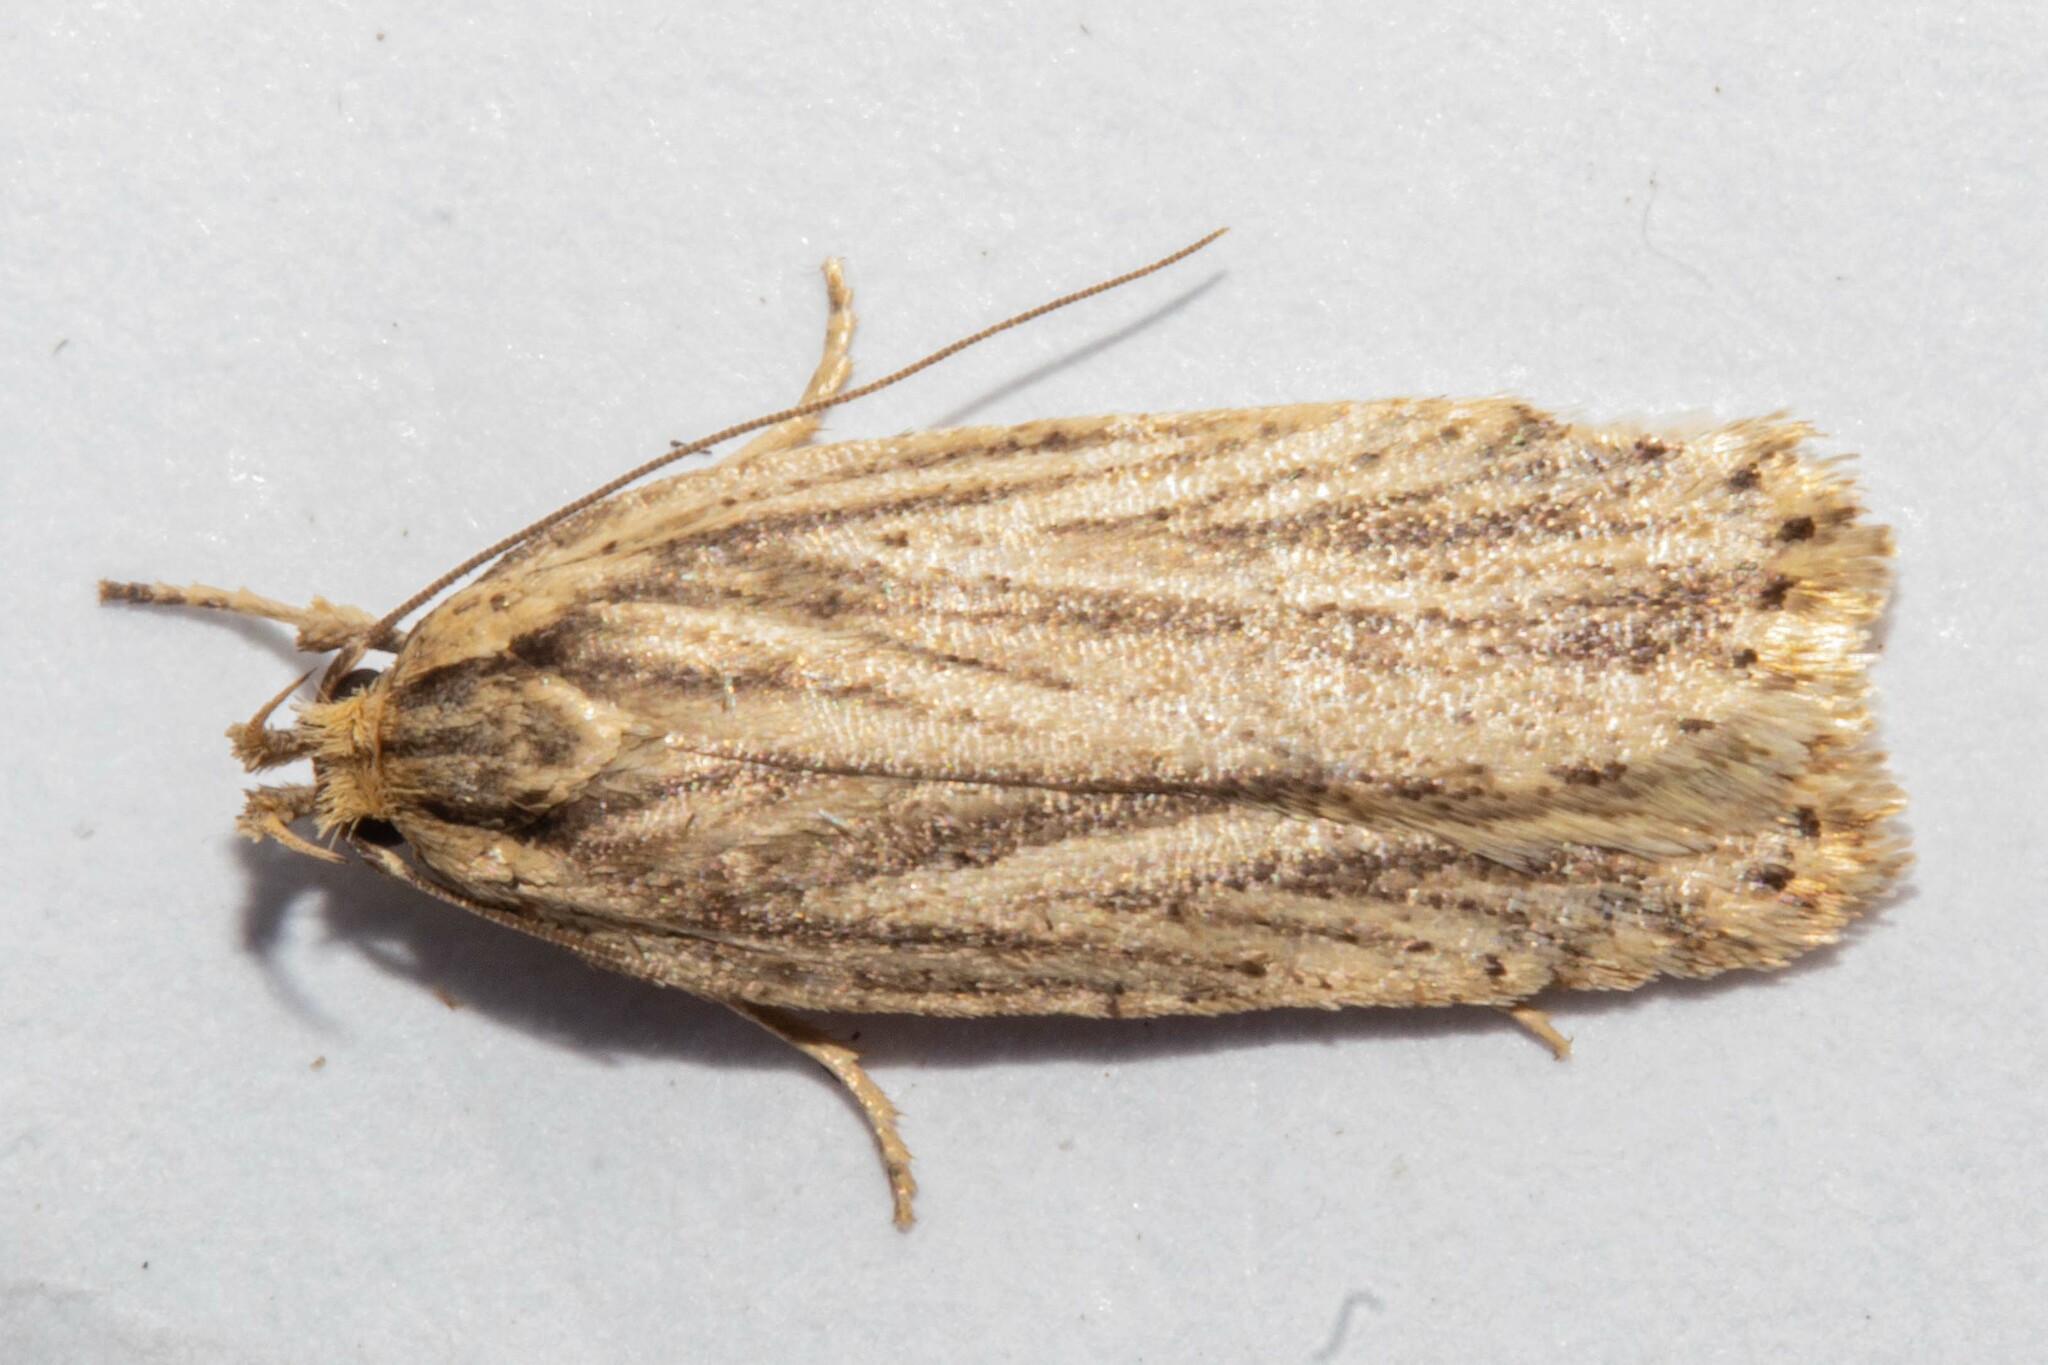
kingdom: Animalia
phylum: Arthropoda
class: Insecta
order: Lepidoptera
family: Depressariidae
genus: Agonopterix
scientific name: Agonopterix
